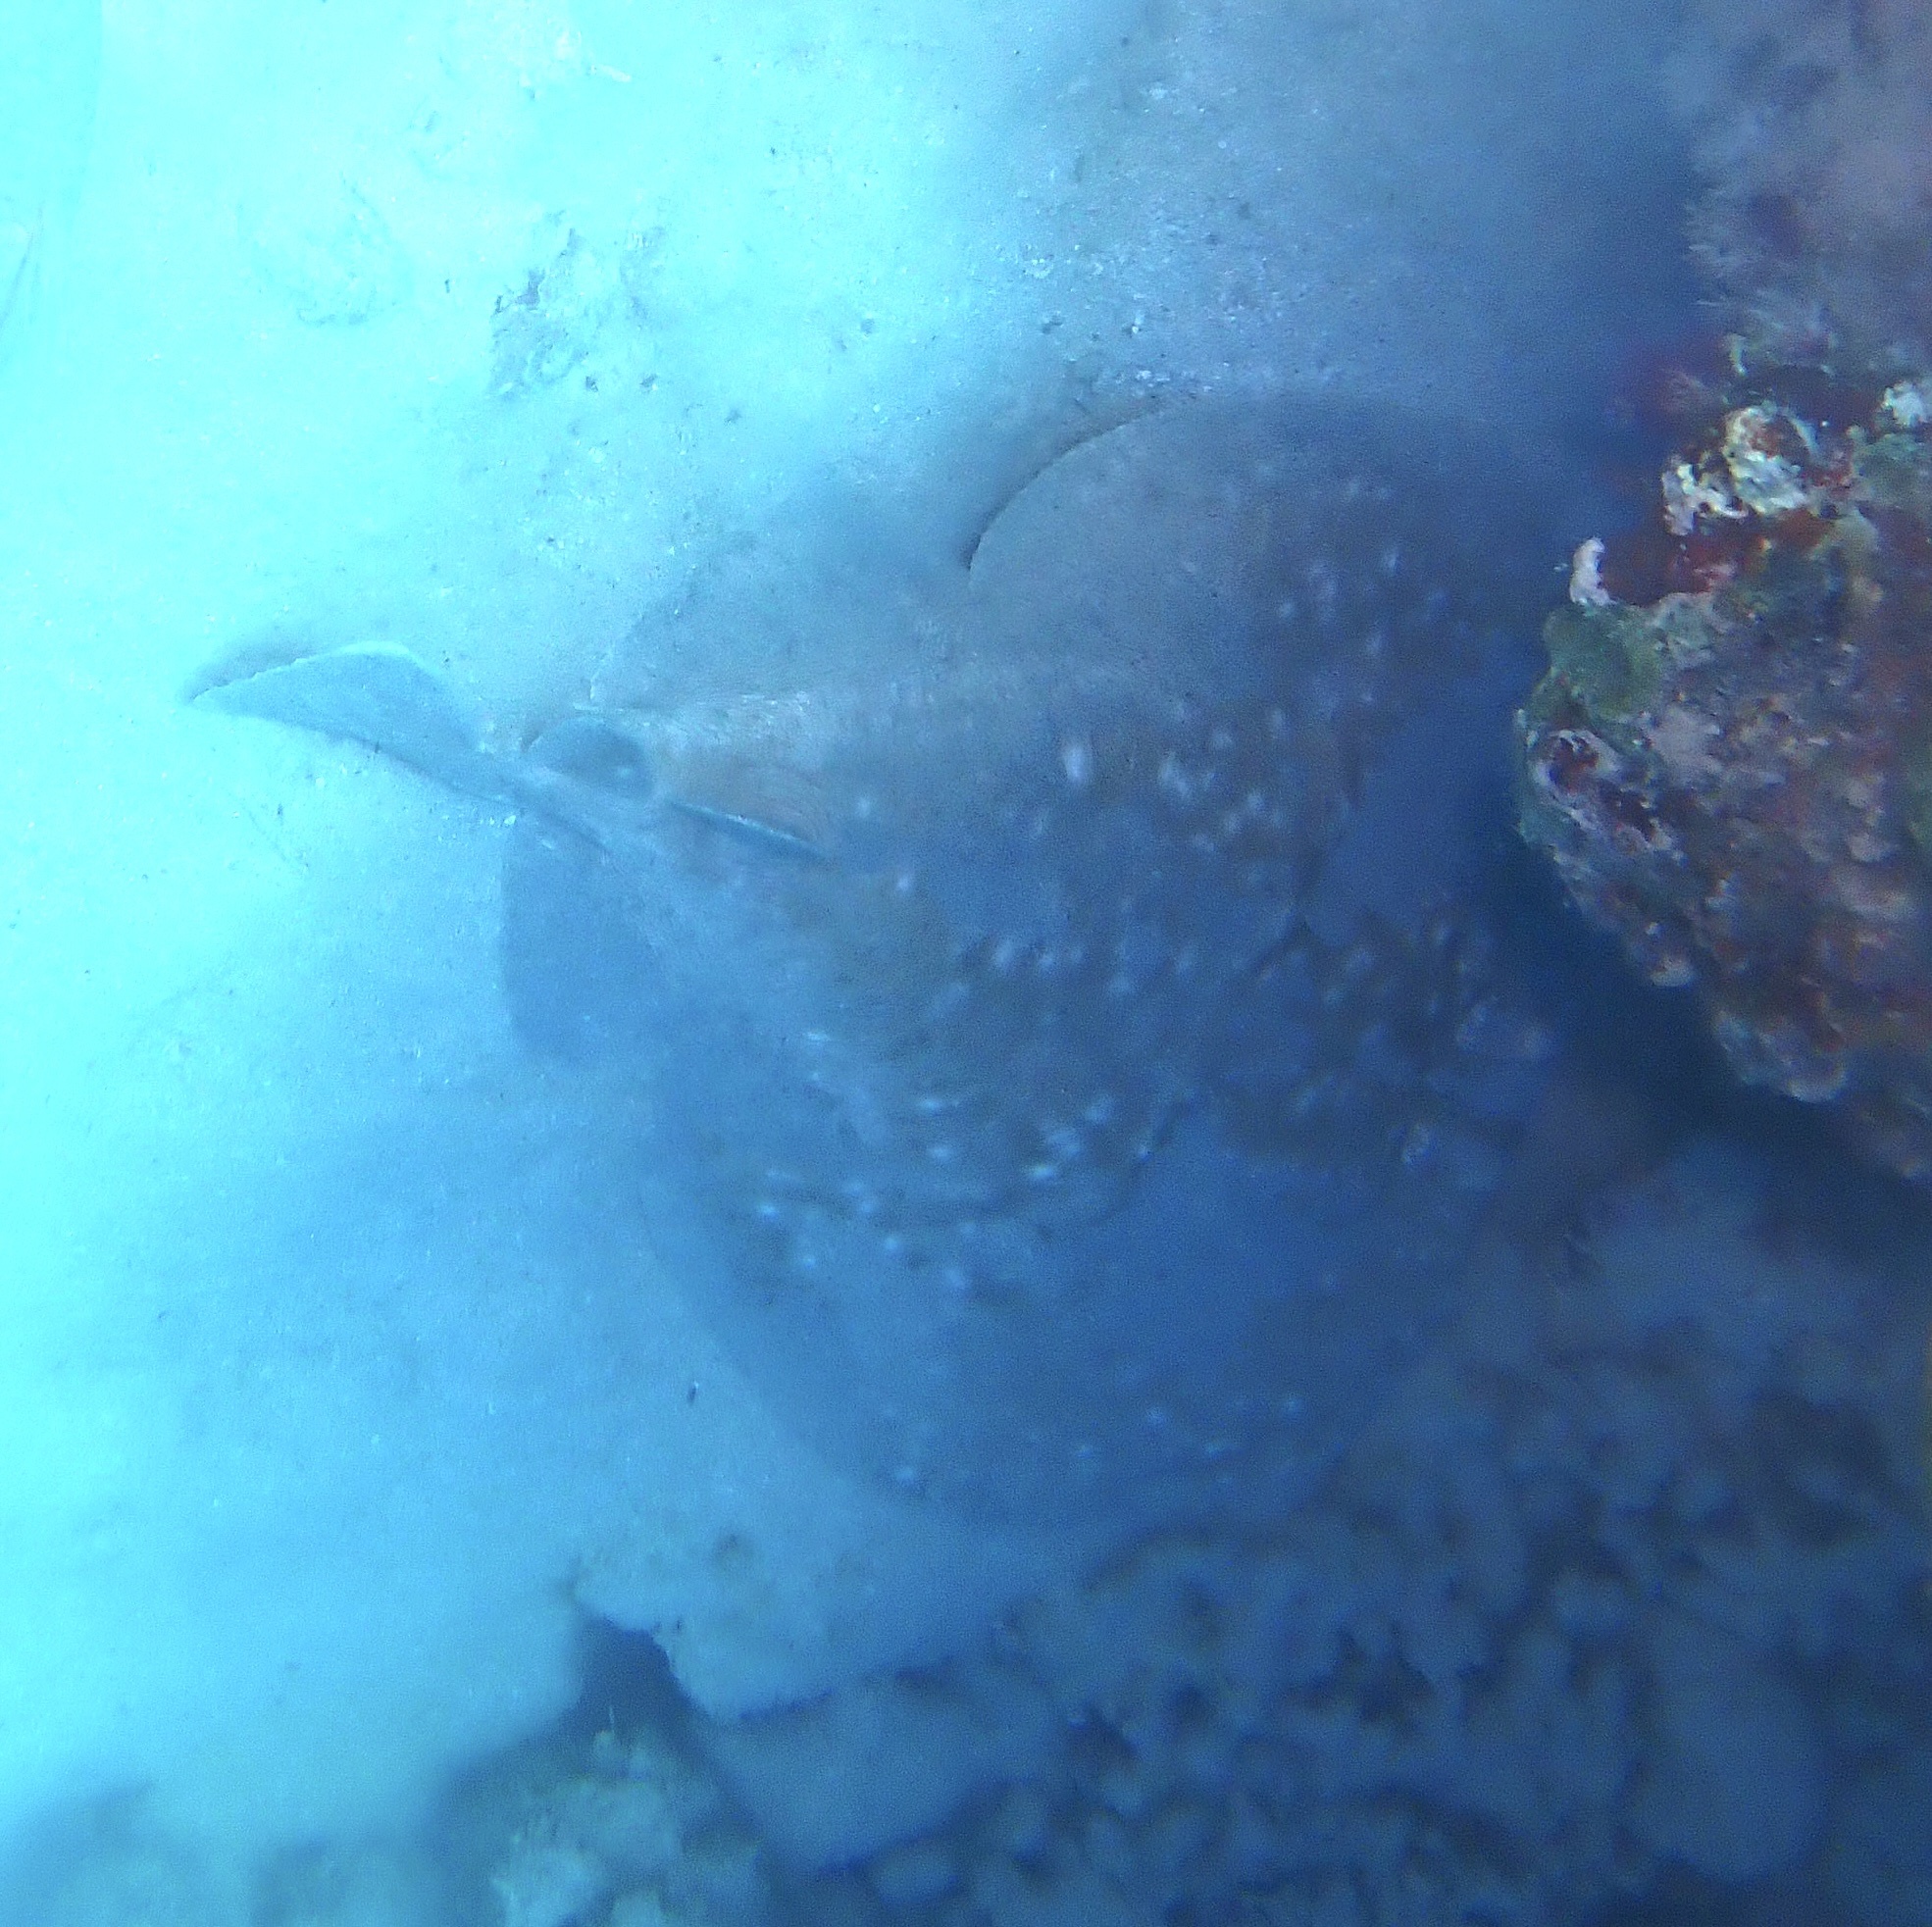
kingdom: Animalia
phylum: Chordata
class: Elasmobranchii
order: Torpediniformes
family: Torpedinidae
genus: Torpedo
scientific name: Torpedo panthera
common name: Leopard torpedo
